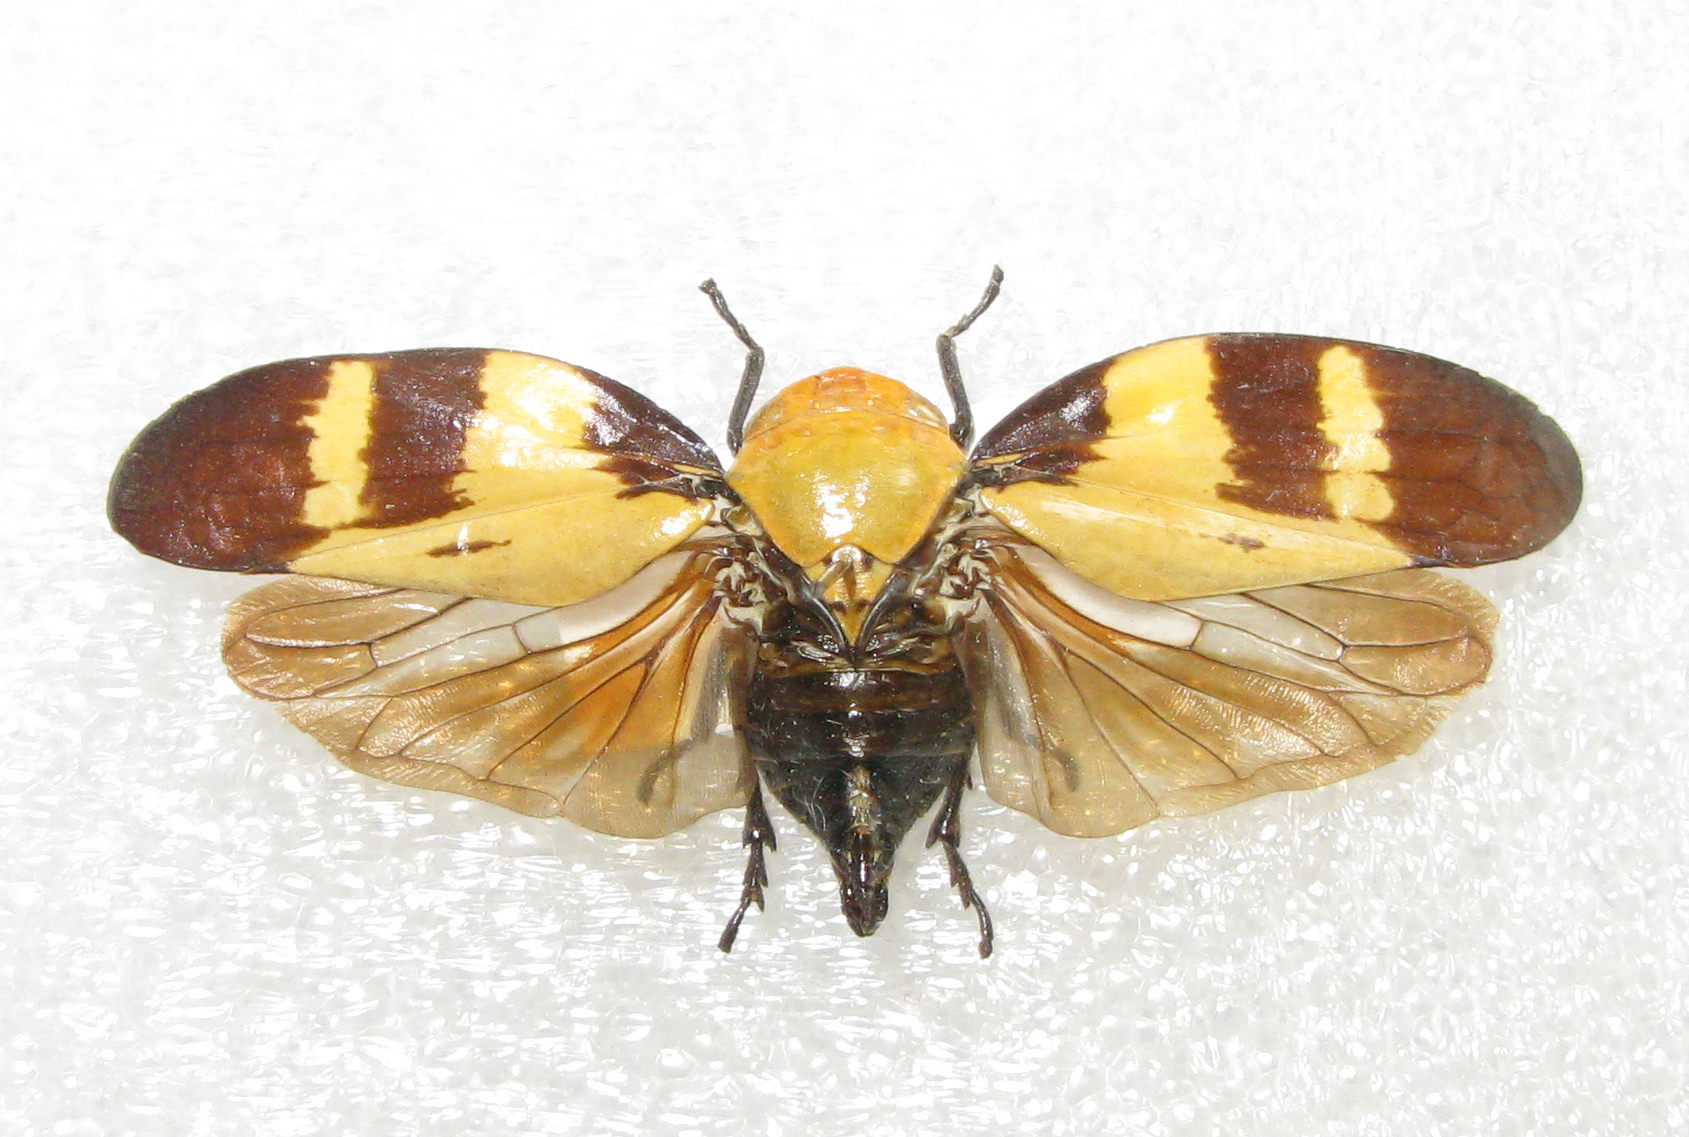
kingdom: Animalia
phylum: Arthropoda
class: Insecta
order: Hemiptera
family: Aphrophoridae
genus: Ptyelus
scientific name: Ptyelus goudoti
